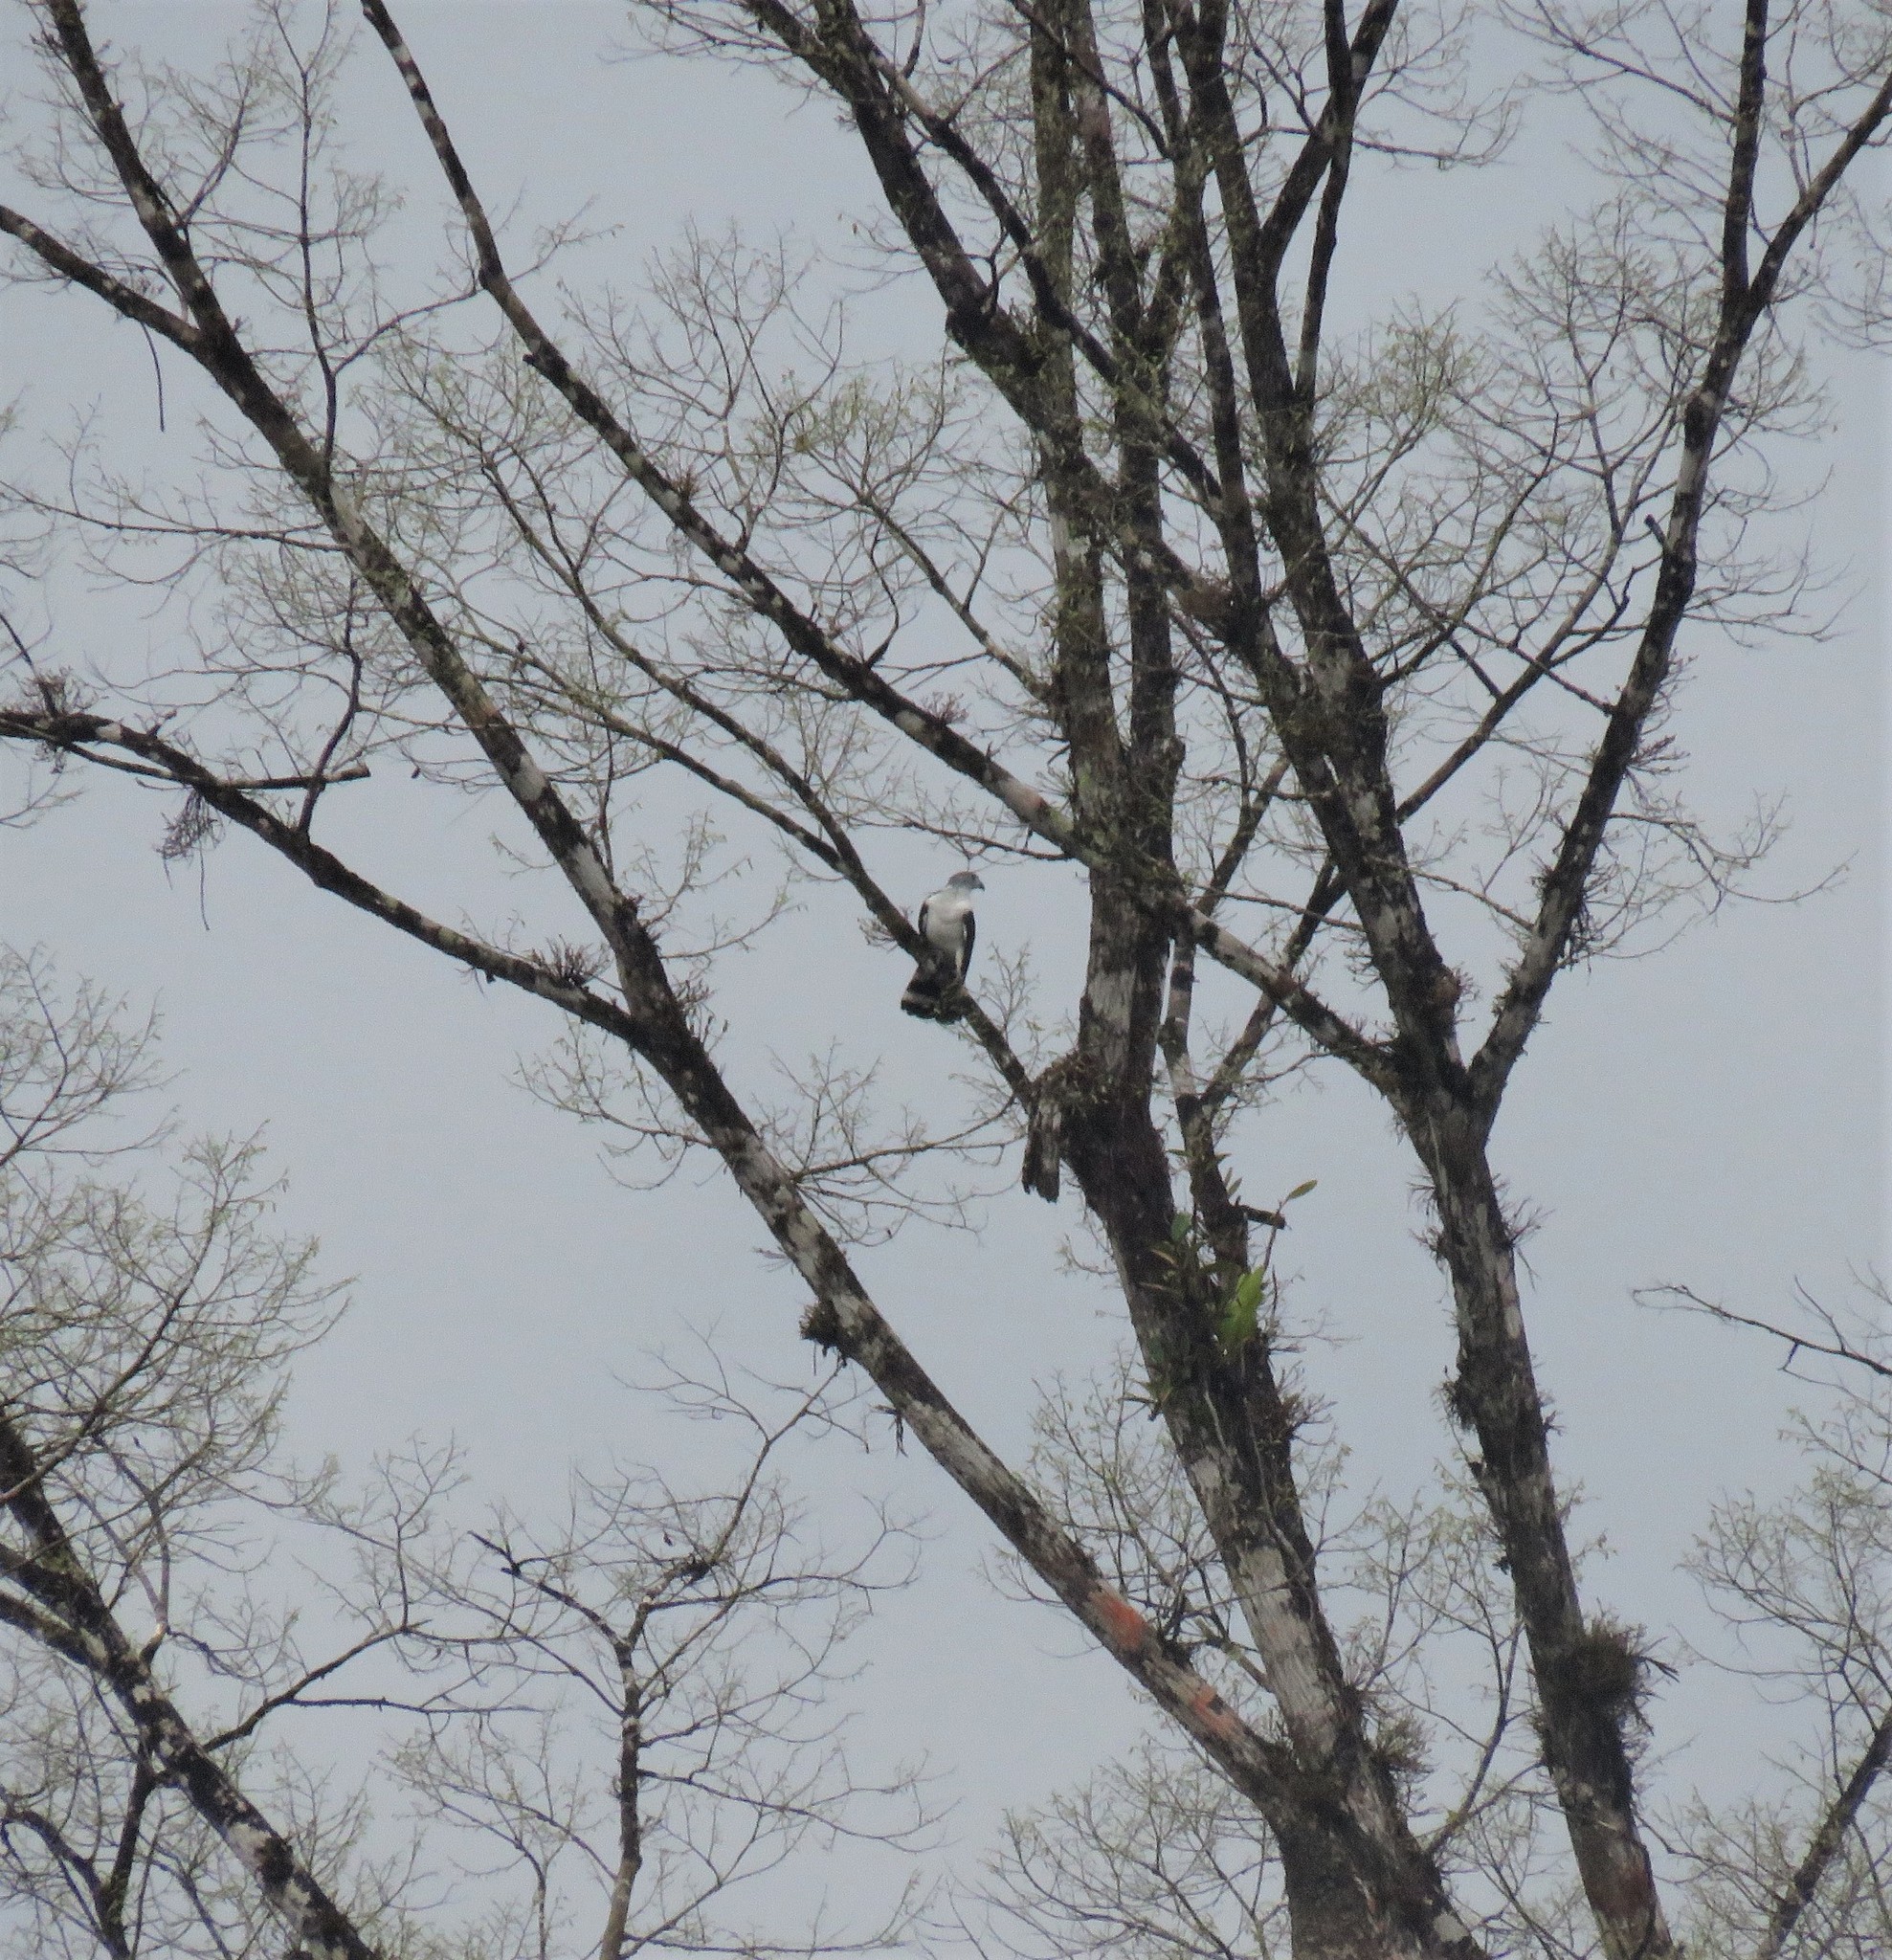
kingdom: Animalia
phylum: Chordata
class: Aves
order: Accipitriformes
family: Accipitridae
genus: Leptodon
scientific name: Leptodon cayanensis
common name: Gray-headed kite
